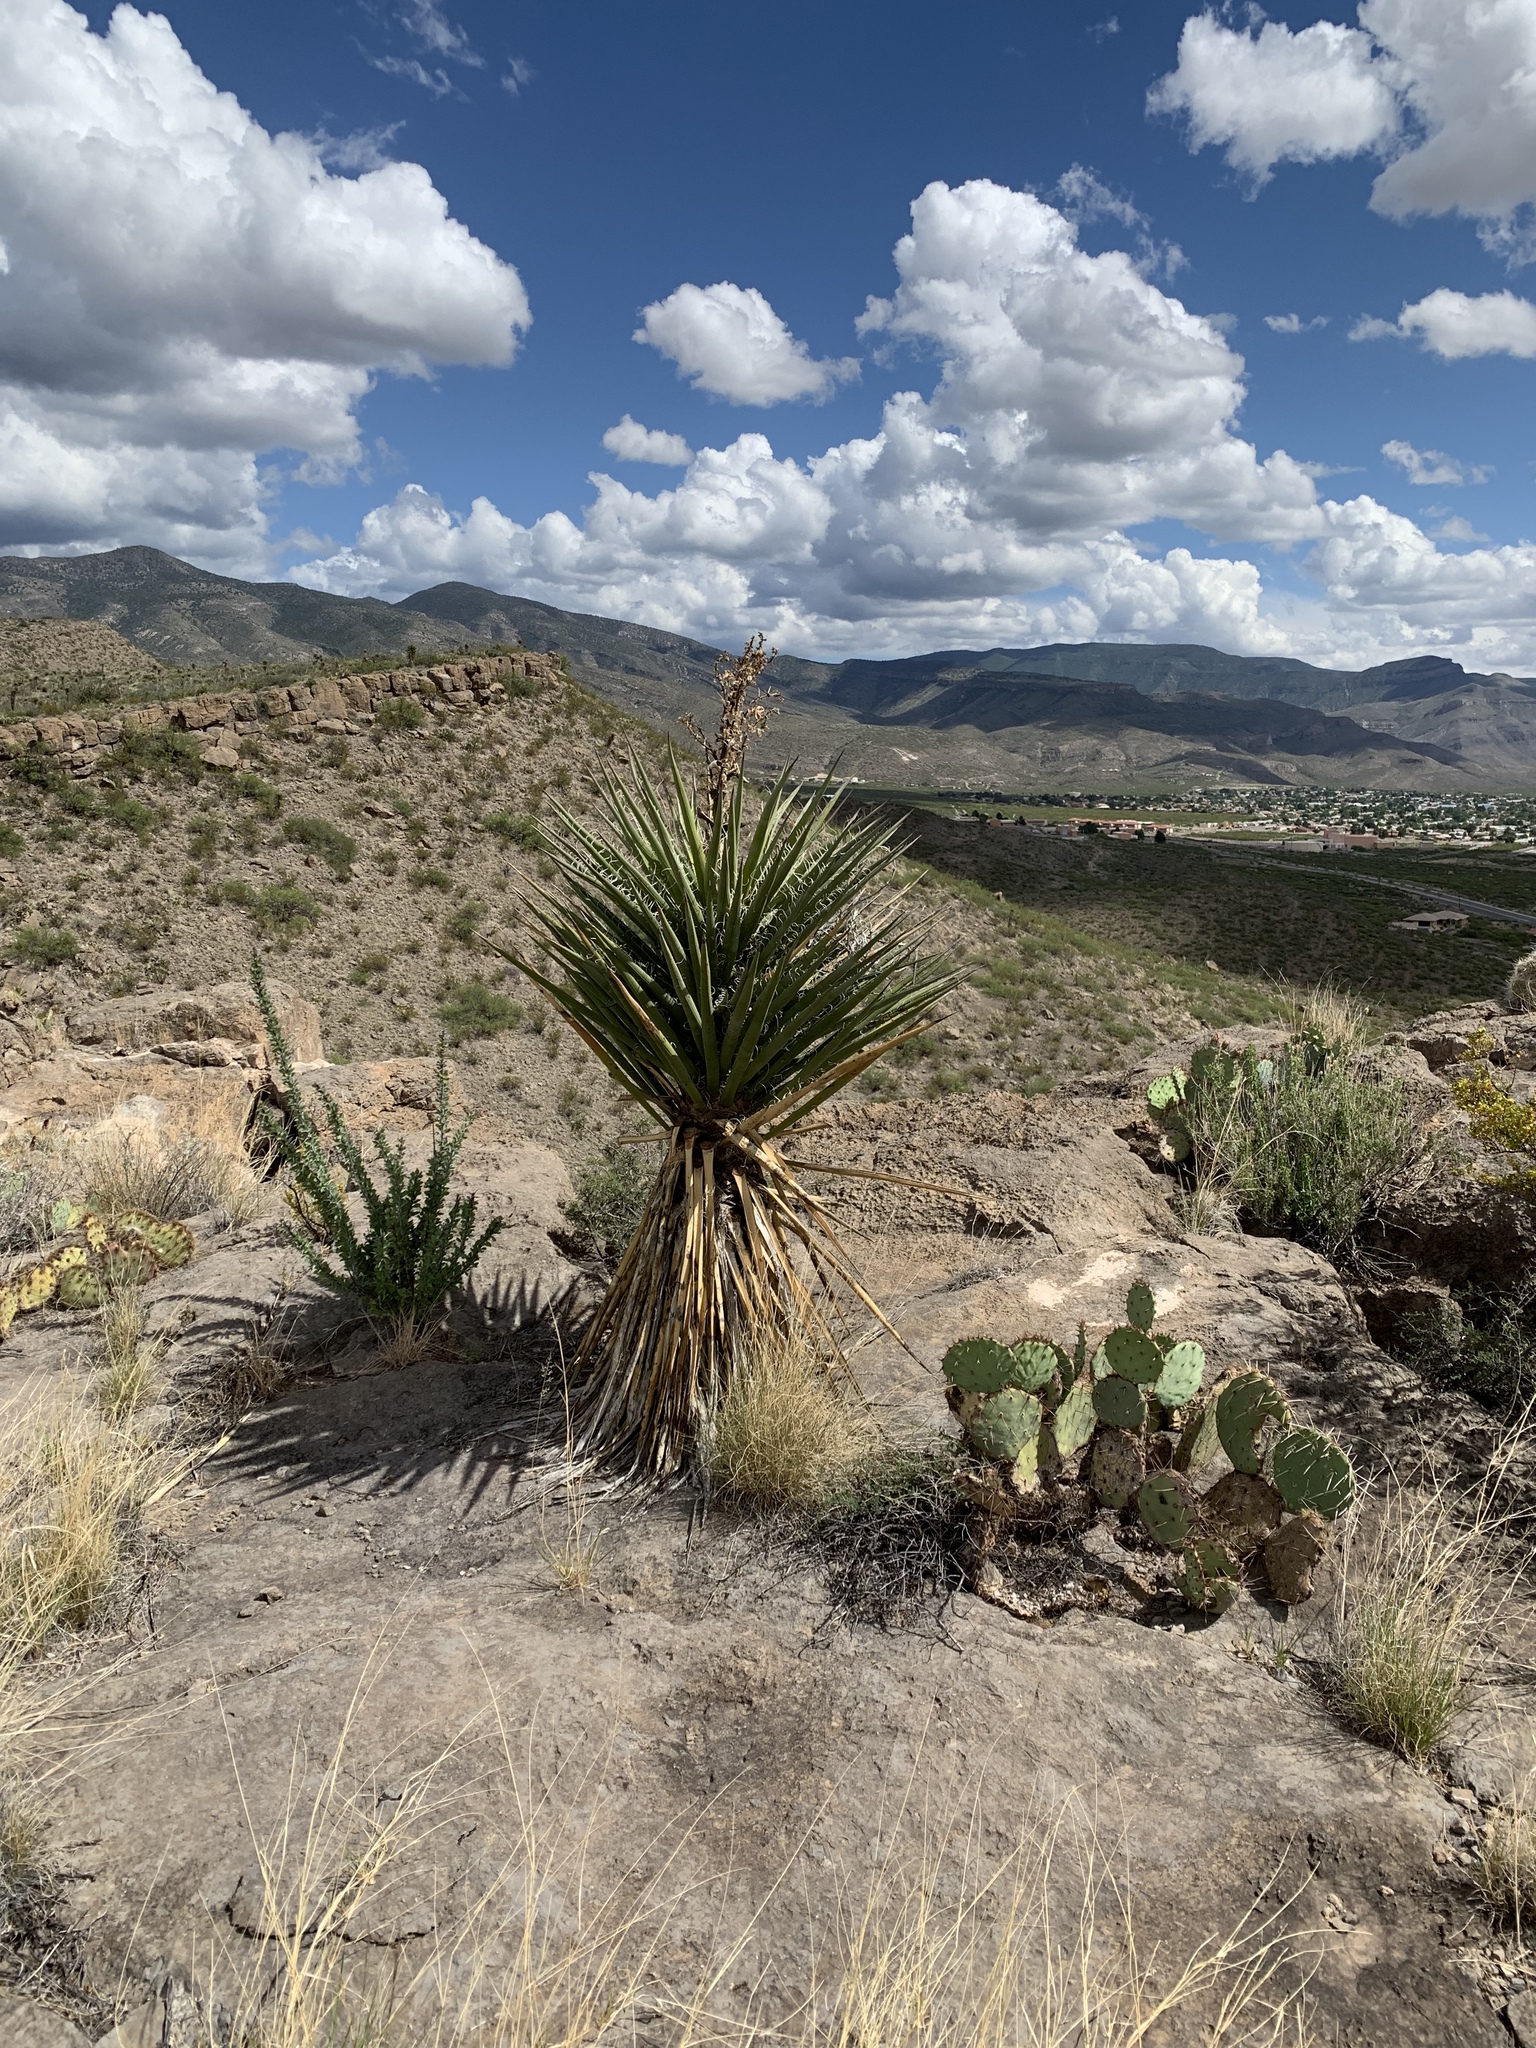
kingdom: Plantae
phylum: Tracheophyta
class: Liliopsida
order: Asparagales
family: Asparagaceae
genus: Yucca
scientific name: Yucca treculiana
